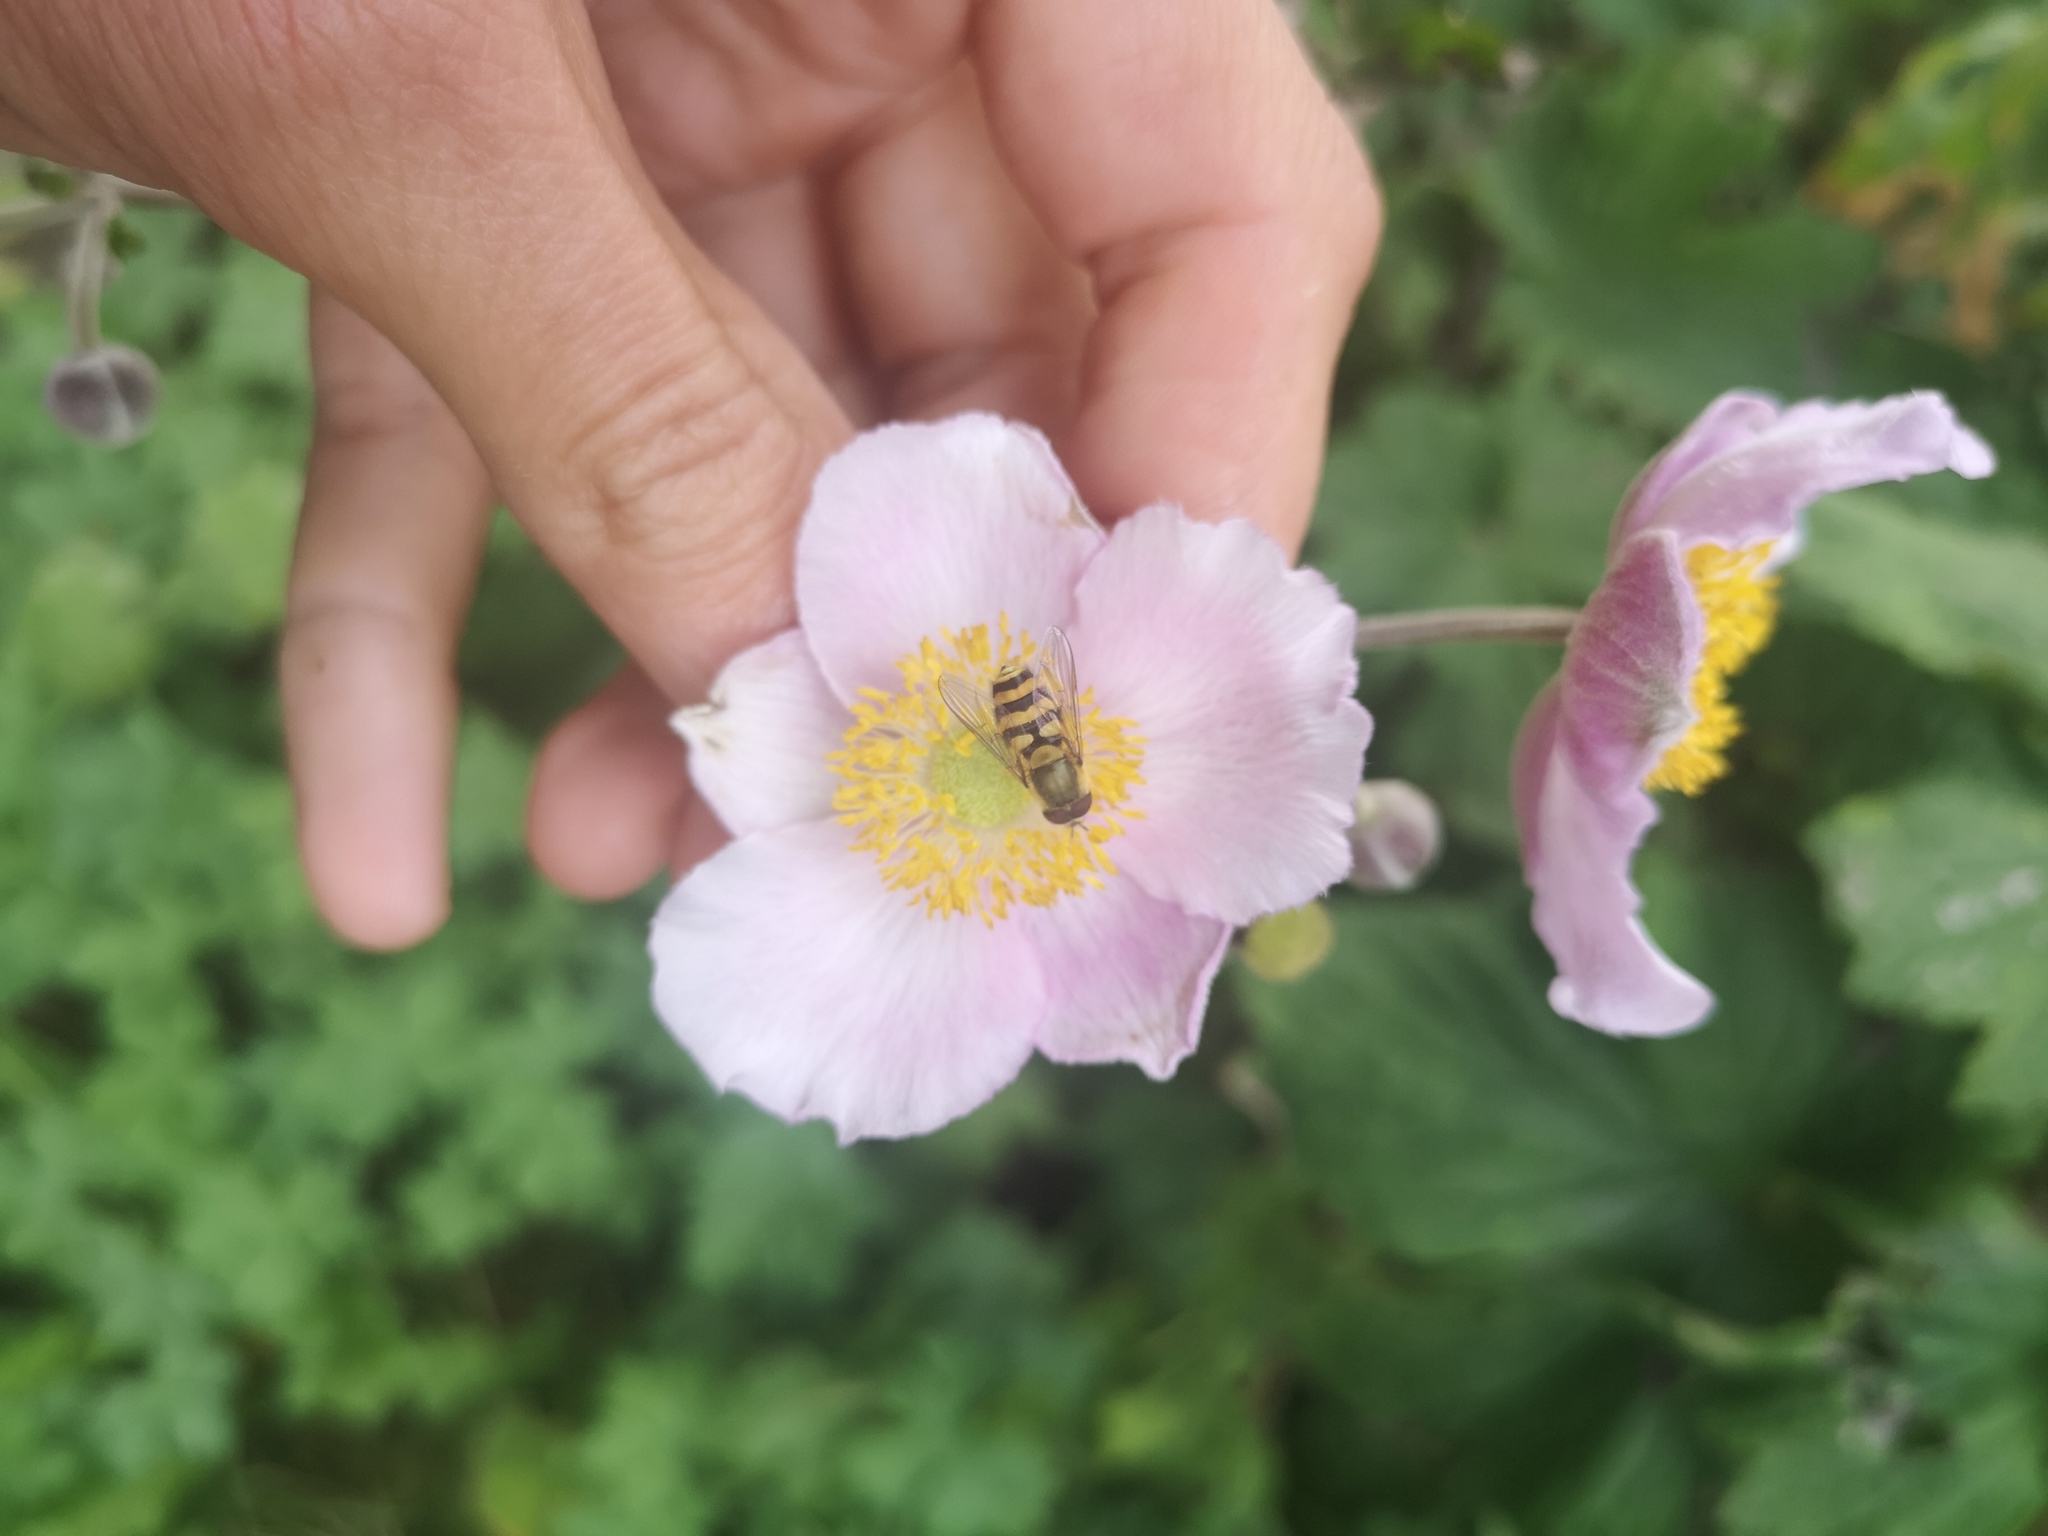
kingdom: Animalia
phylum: Arthropoda
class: Insecta
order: Diptera
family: Syrphidae
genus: Syrphus
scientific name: Syrphus
